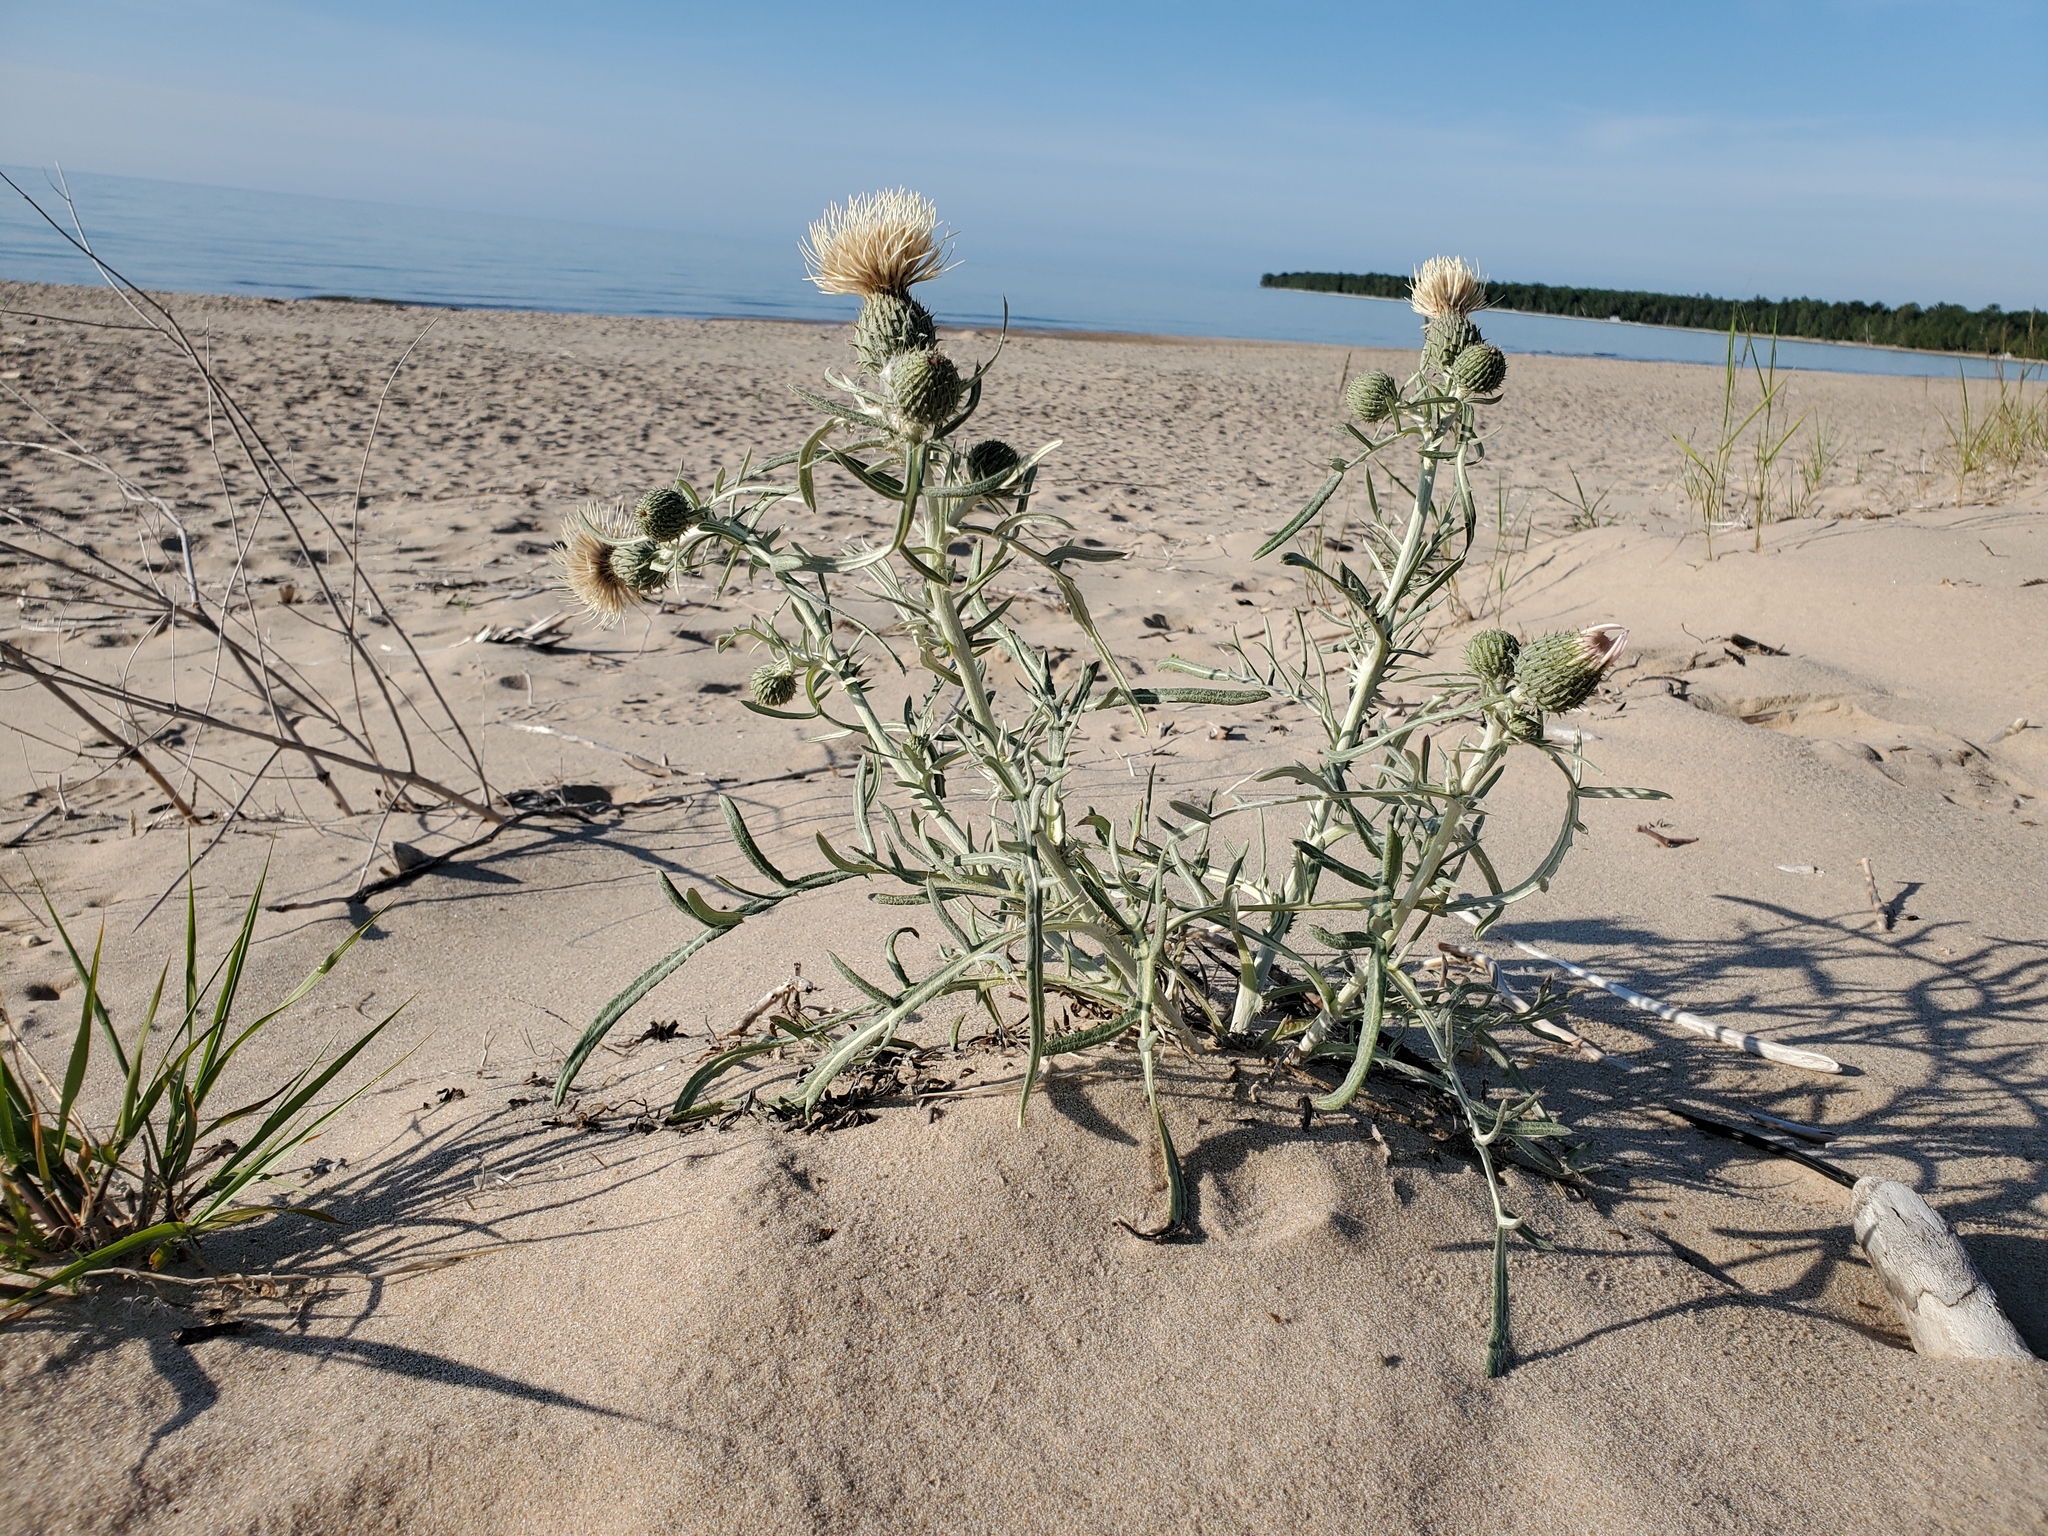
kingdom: Plantae
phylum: Tracheophyta
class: Magnoliopsida
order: Asterales
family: Asteraceae
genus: Cirsium
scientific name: Cirsium pitcheri
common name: Dune thistle
